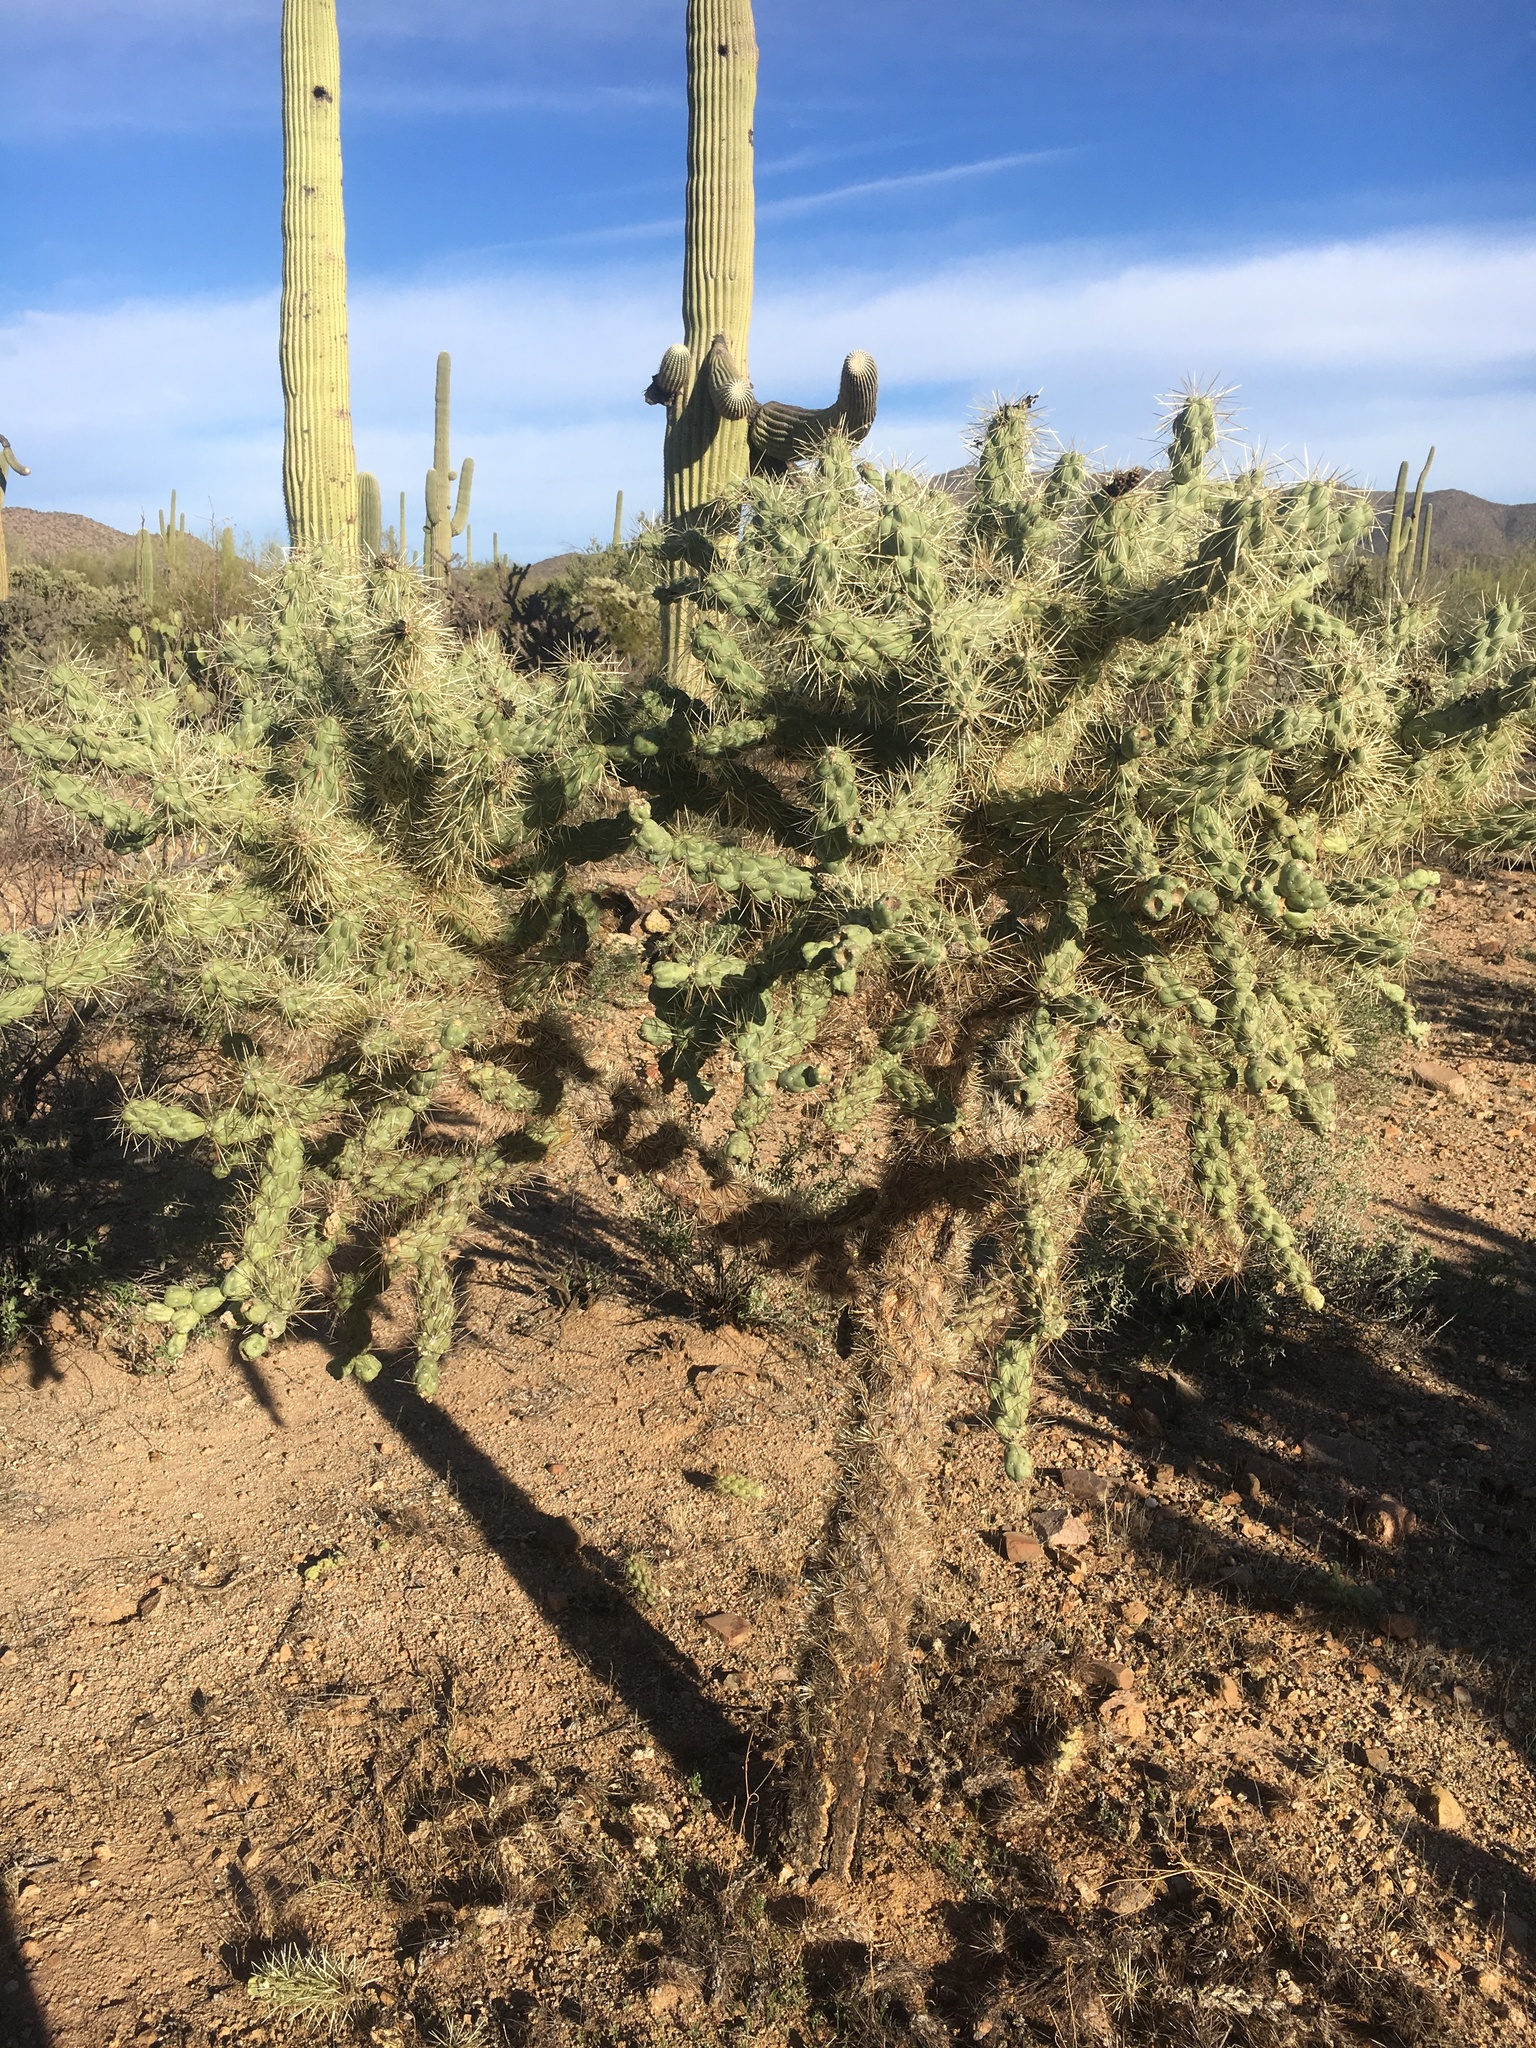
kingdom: Plantae
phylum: Tracheophyta
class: Magnoliopsida
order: Caryophyllales
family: Cactaceae
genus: Cylindropuntia
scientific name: Cylindropuntia fulgida
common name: Jumping cholla
